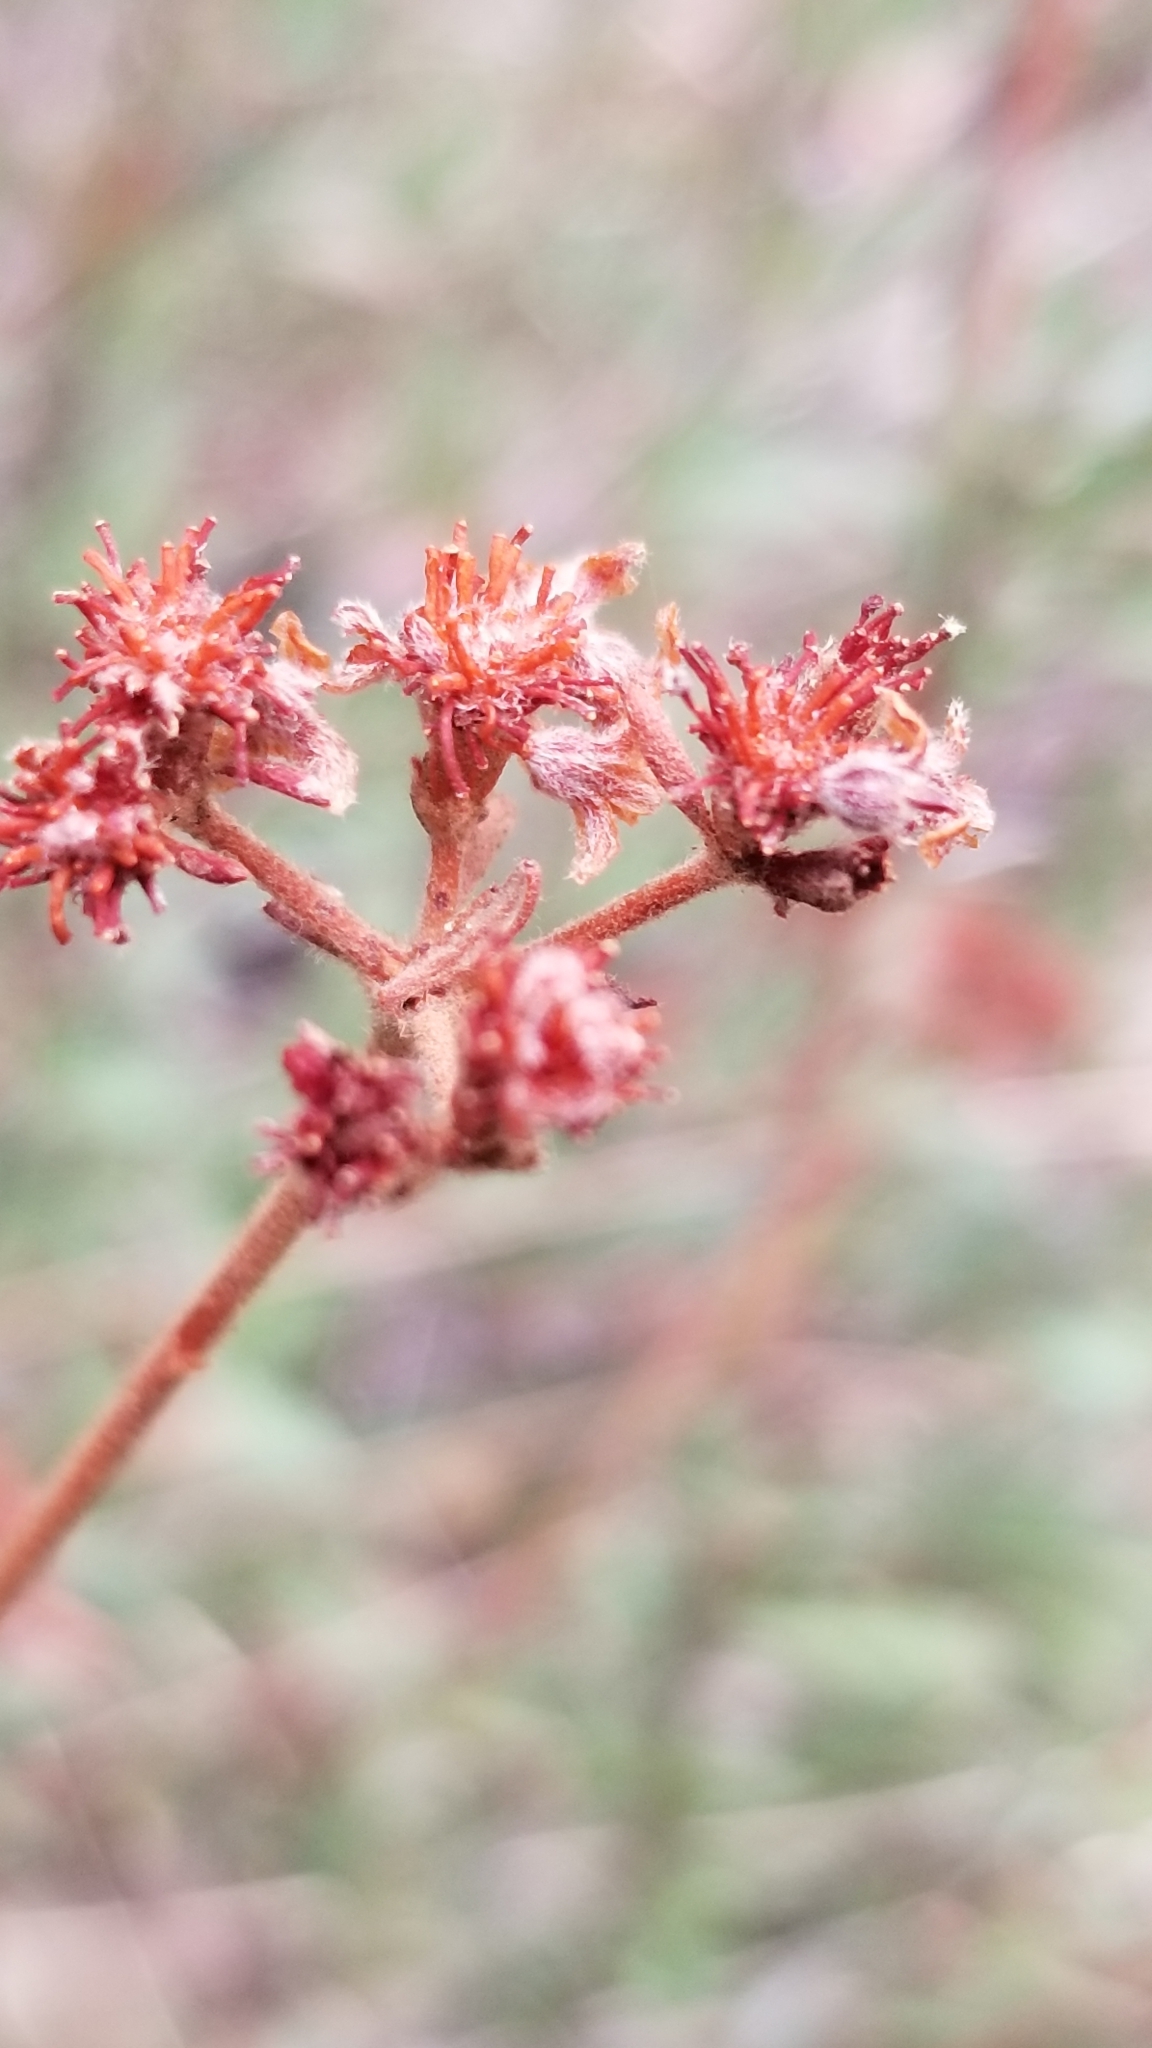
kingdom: Plantae
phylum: Tracheophyta
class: Magnoliopsida
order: Caryophyllales
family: Polygonaceae
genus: Eriogonum
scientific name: Eriogonum fasciculatum
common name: California wild buckwheat
